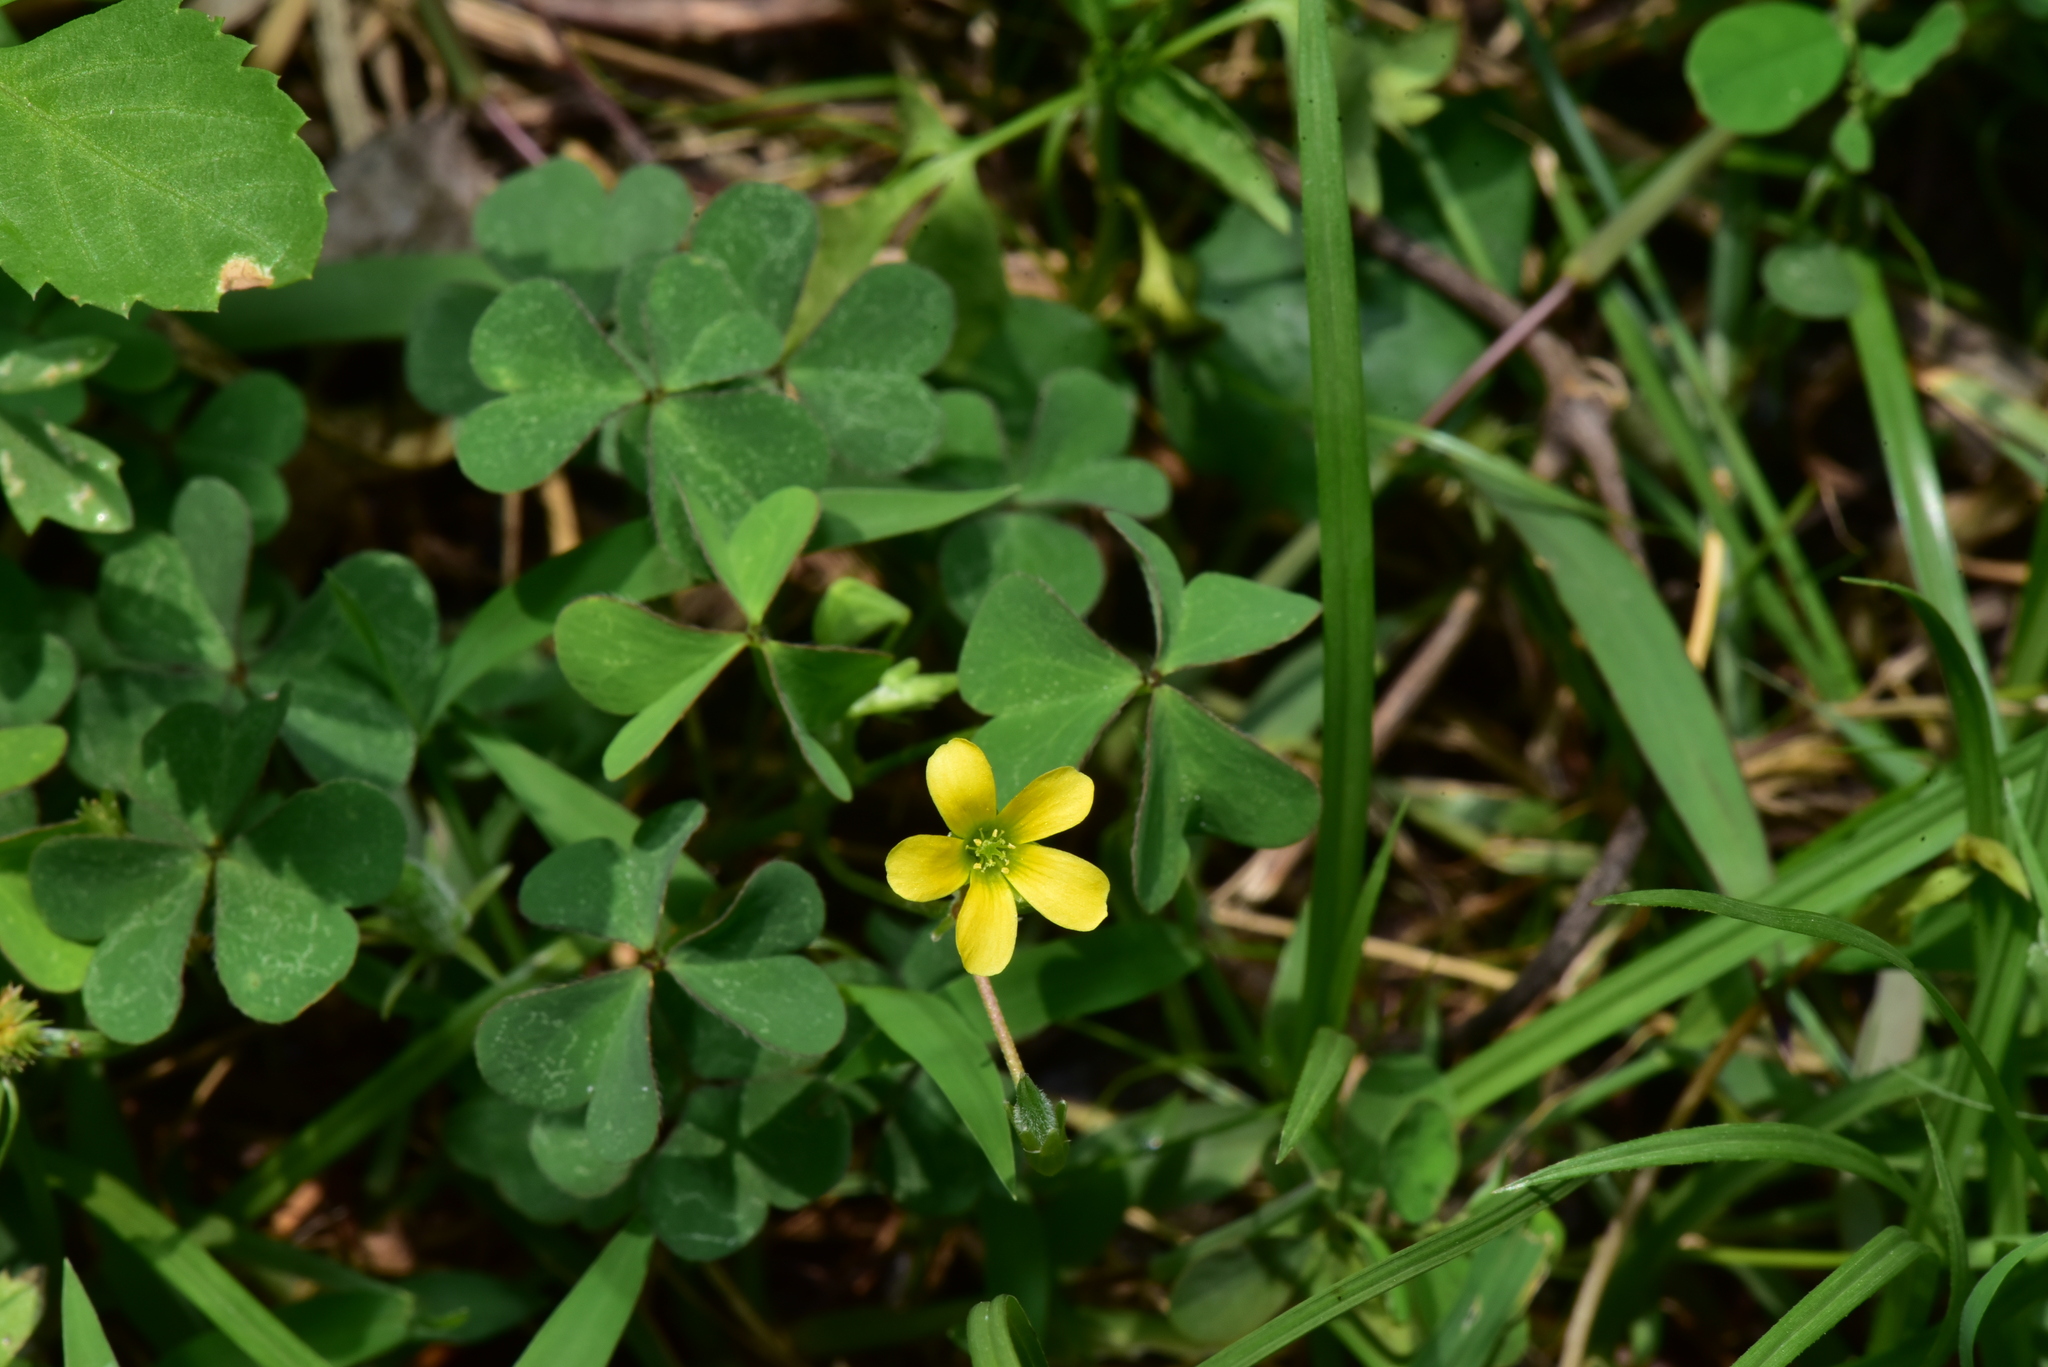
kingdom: Plantae
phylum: Tracheophyta
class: Magnoliopsida
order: Oxalidales
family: Oxalidaceae
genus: Oxalis
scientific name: Oxalis corniculata
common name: Procumbent yellow-sorrel
